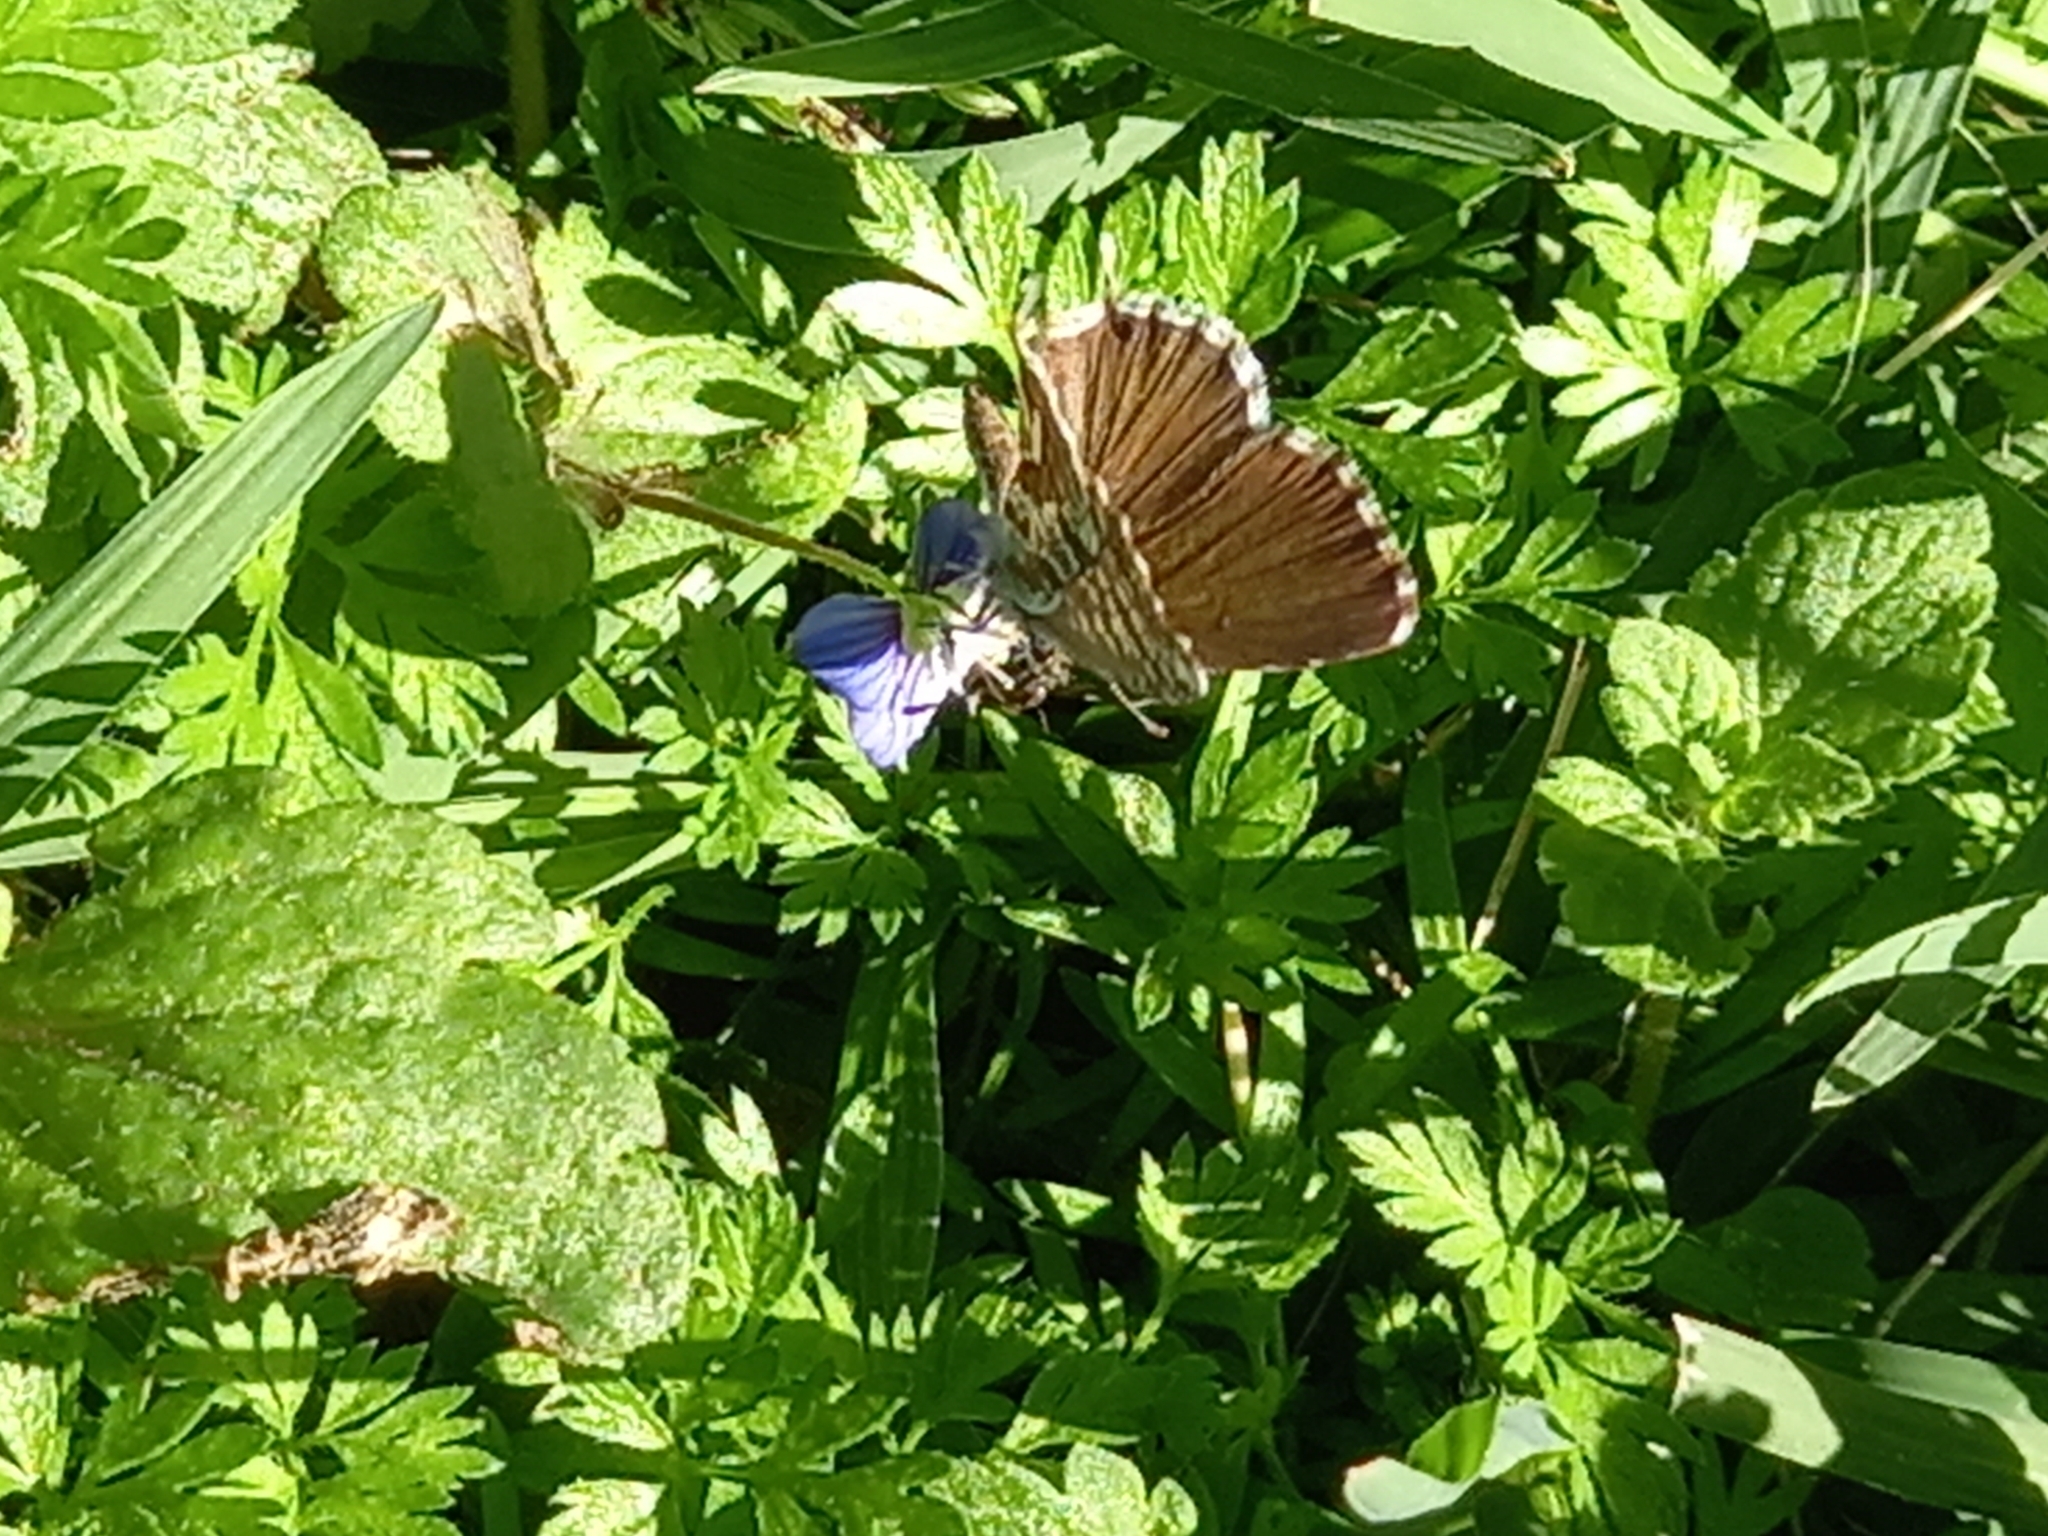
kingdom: Animalia
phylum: Arthropoda
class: Insecta
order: Lepidoptera
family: Lycaenidae
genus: Cacyreus
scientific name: Cacyreus marshalli
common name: Geranium bronze
